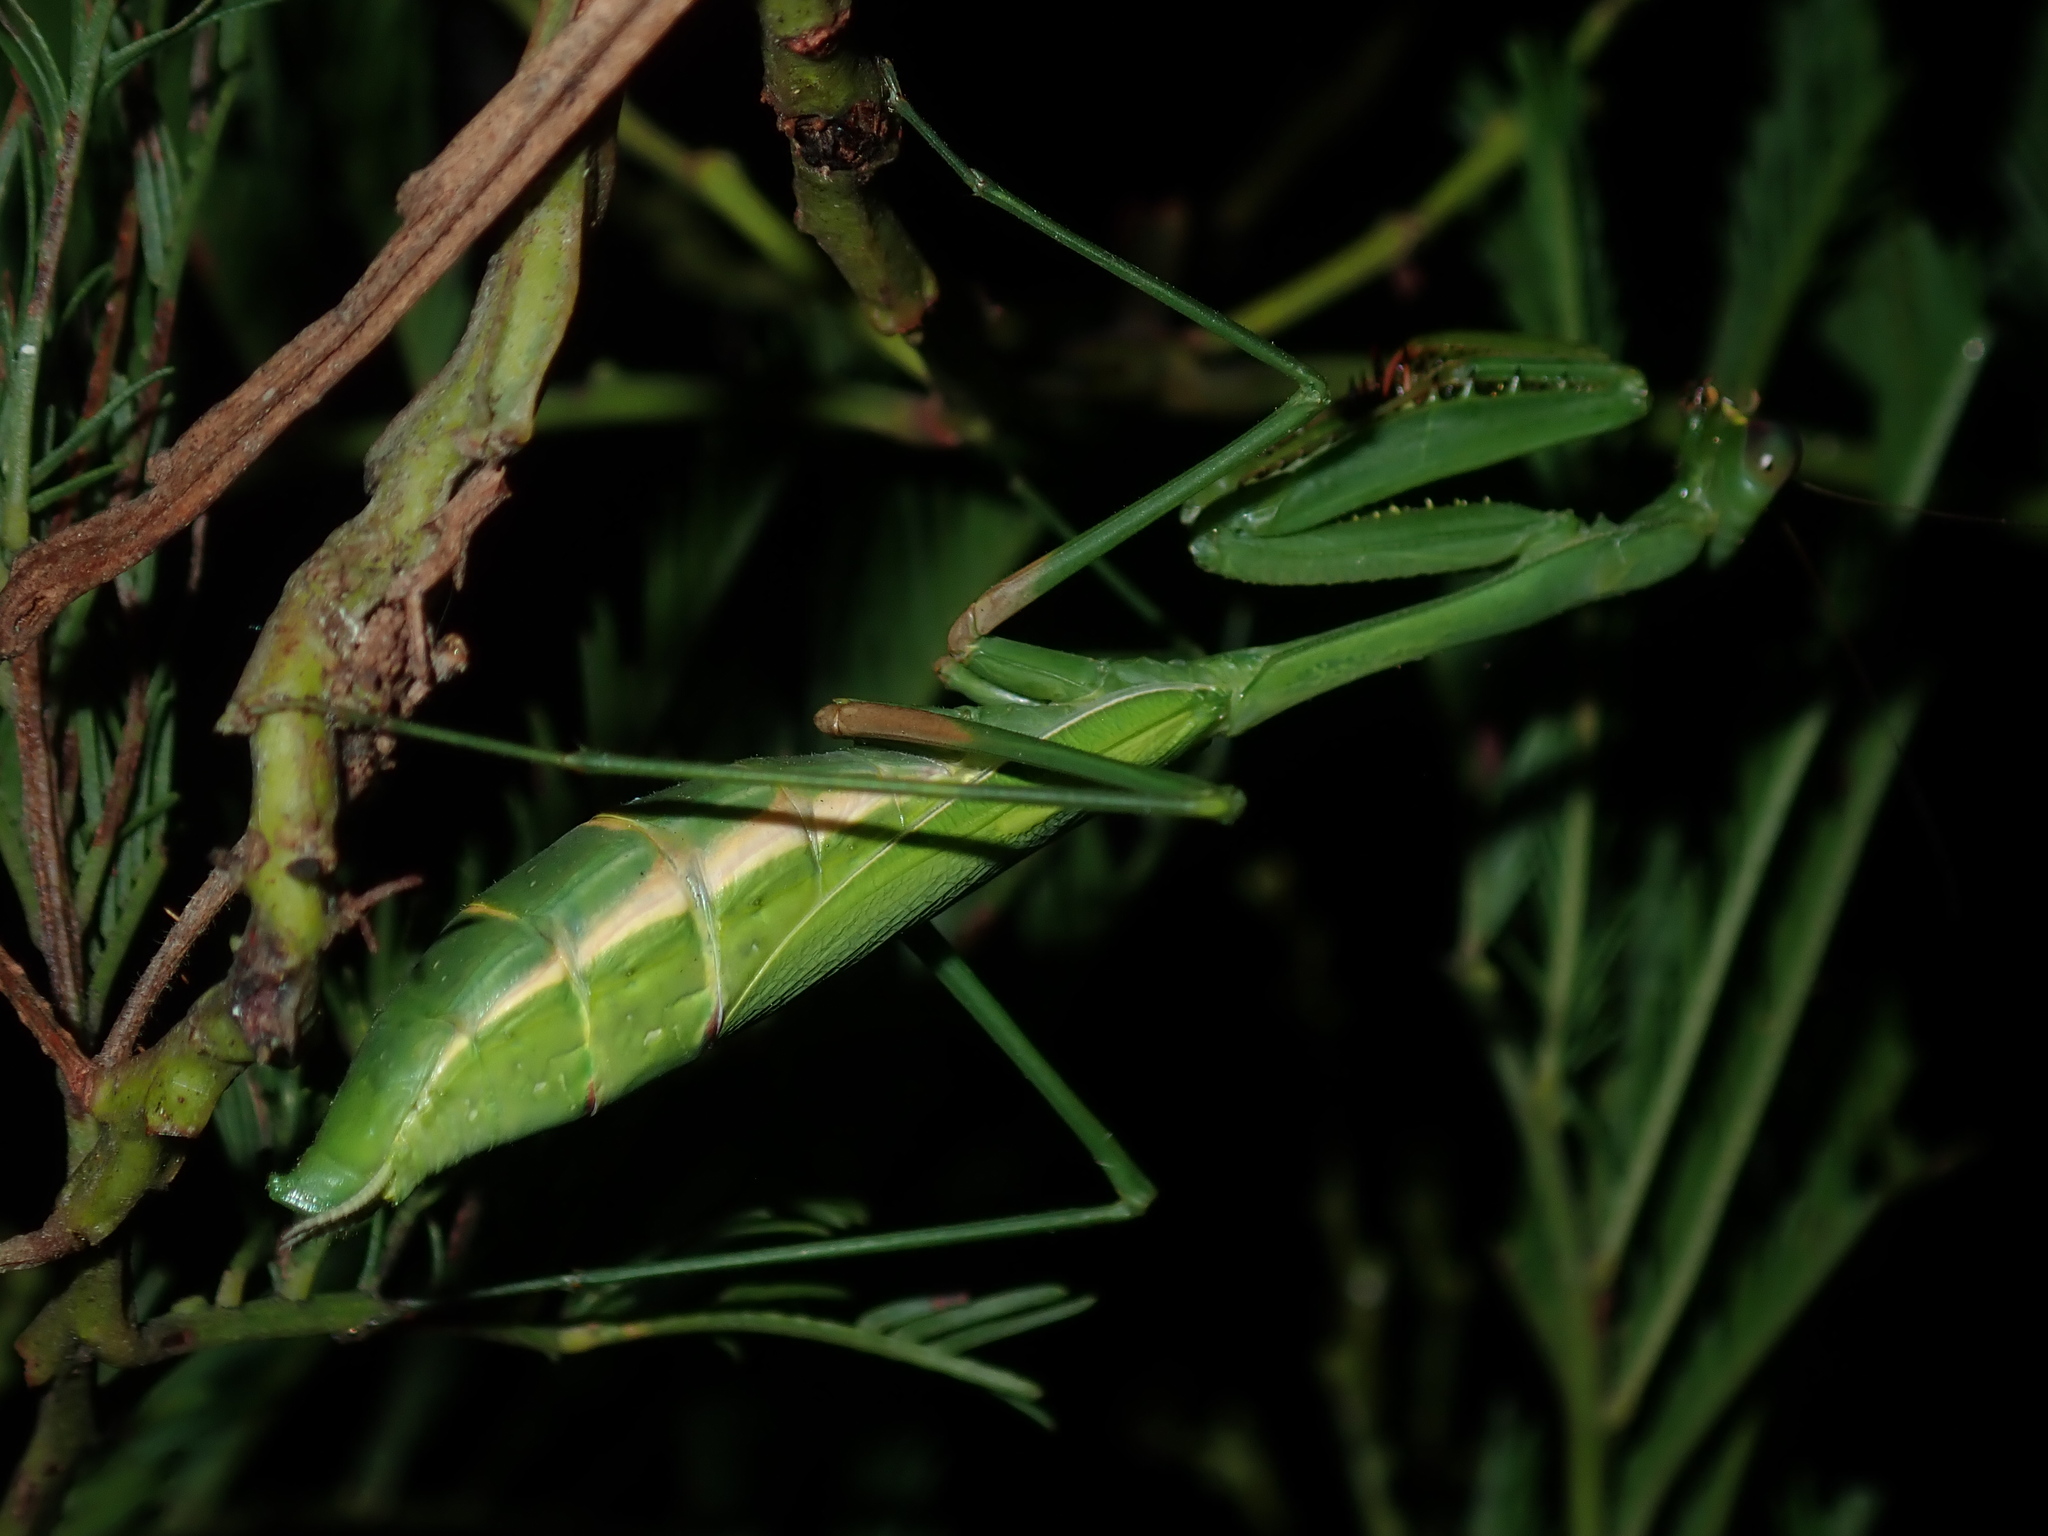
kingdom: Animalia
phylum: Arthropoda
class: Insecta
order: Mantodea
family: Mantidae
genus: Pseudomantis
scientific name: Pseudomantis albofimbriata
